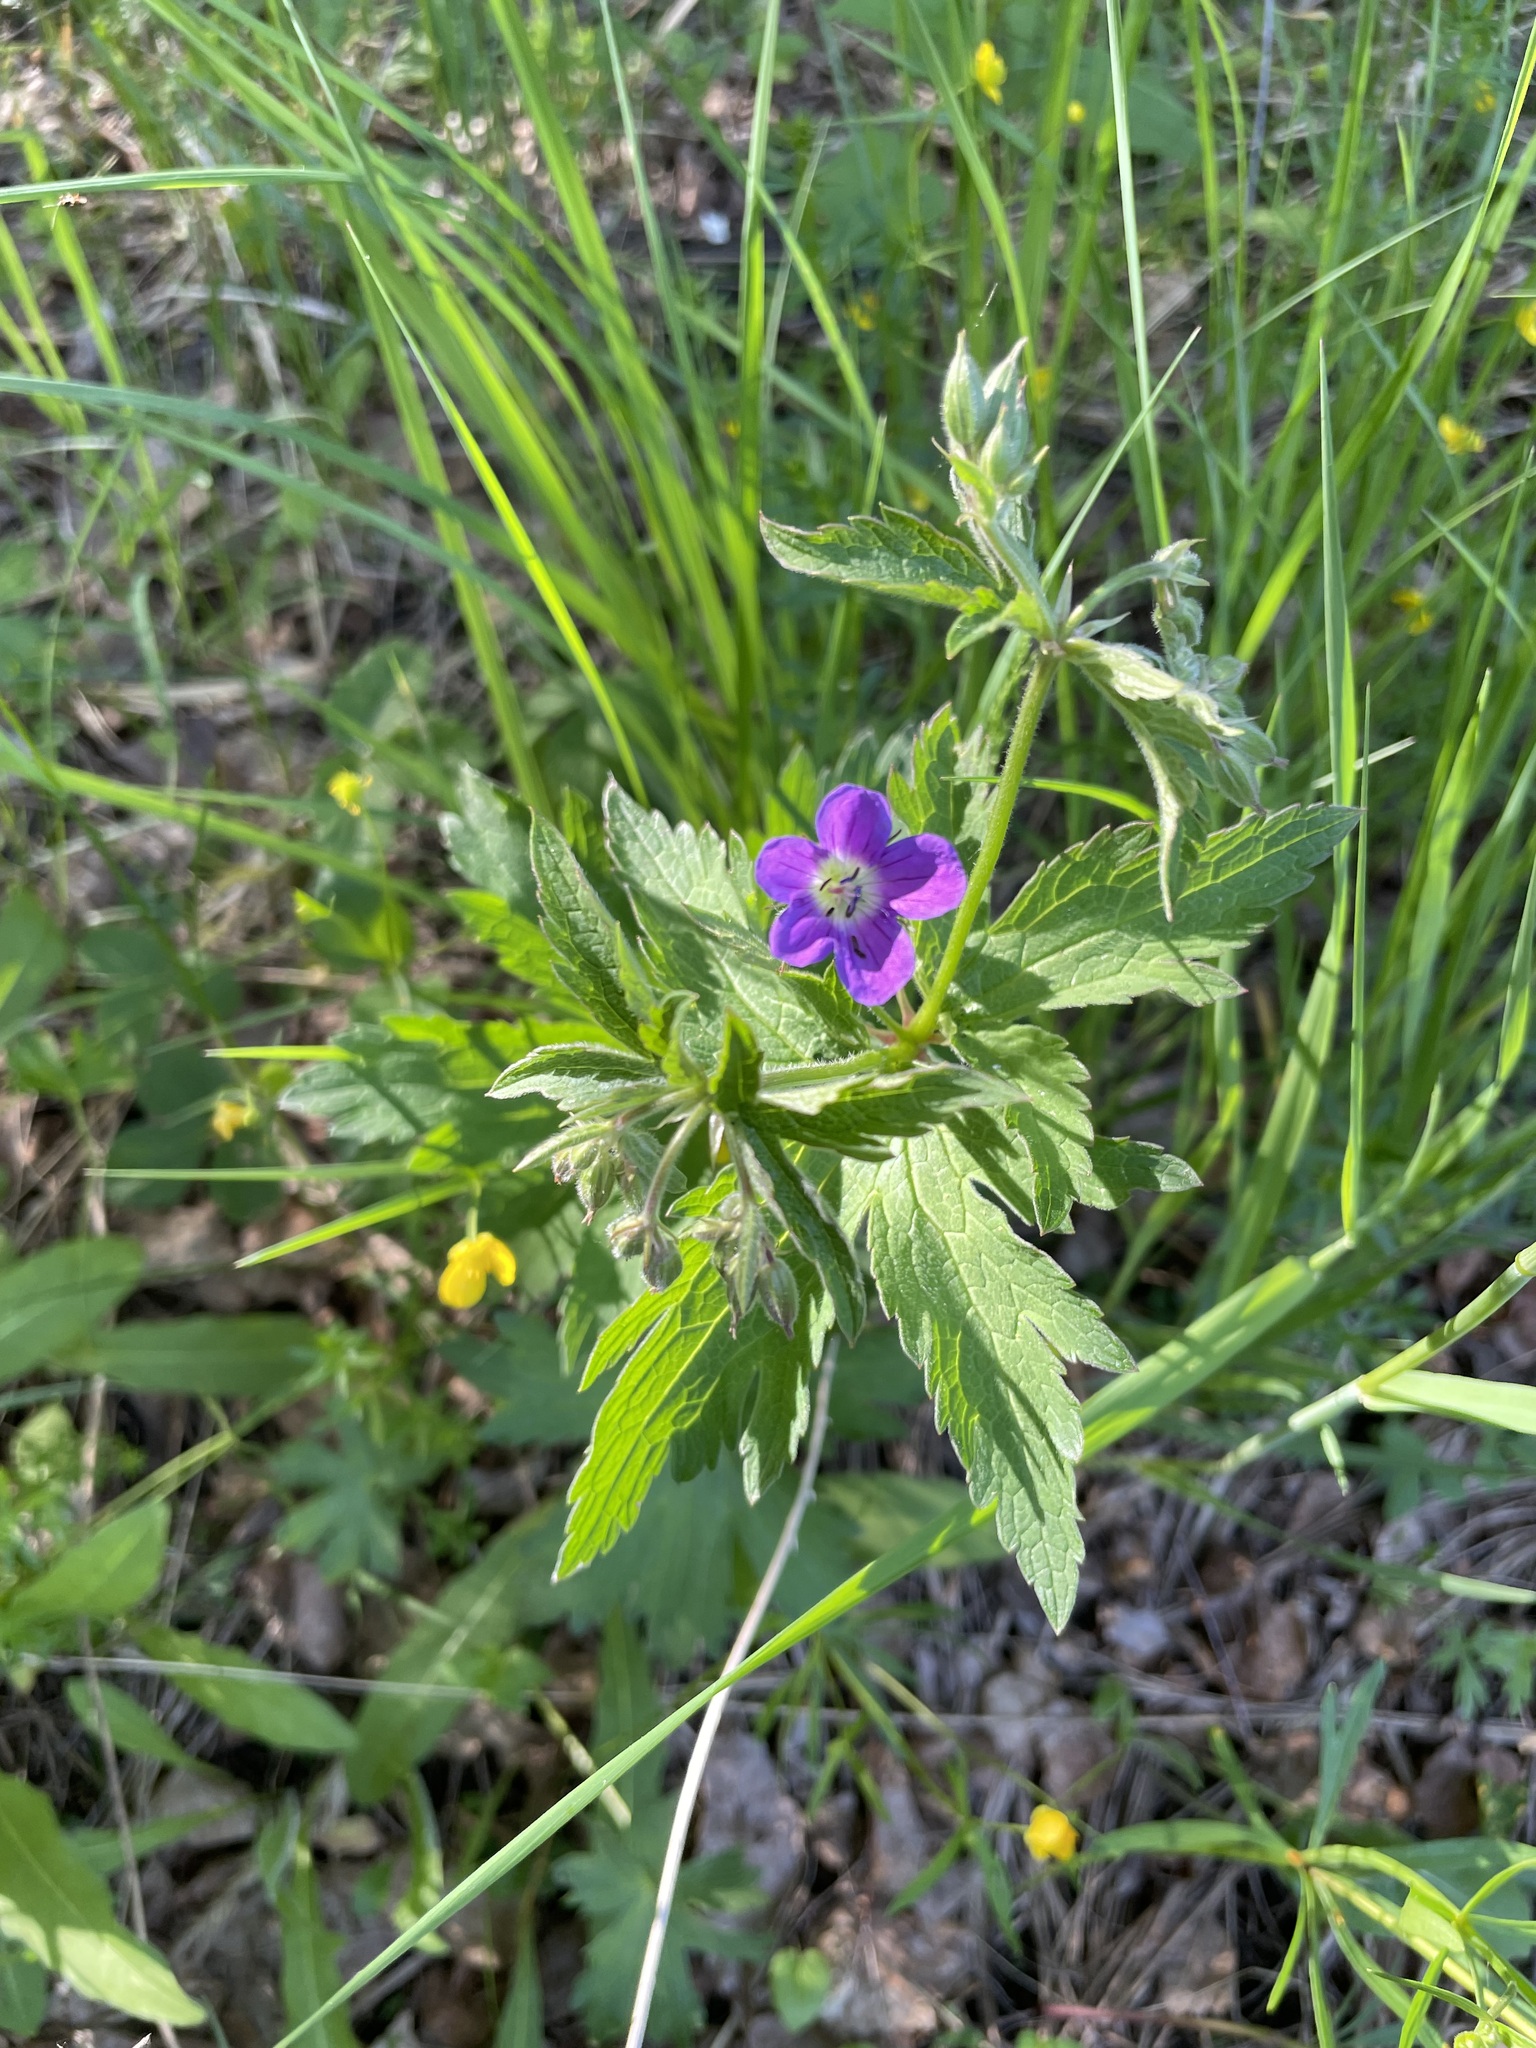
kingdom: Plantae
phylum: Tracheophyta
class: Magnoliopsida
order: Geraniales
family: Geraniaceae
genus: Geranium
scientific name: Geranium sylvaticum
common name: Wood crane's-bill
